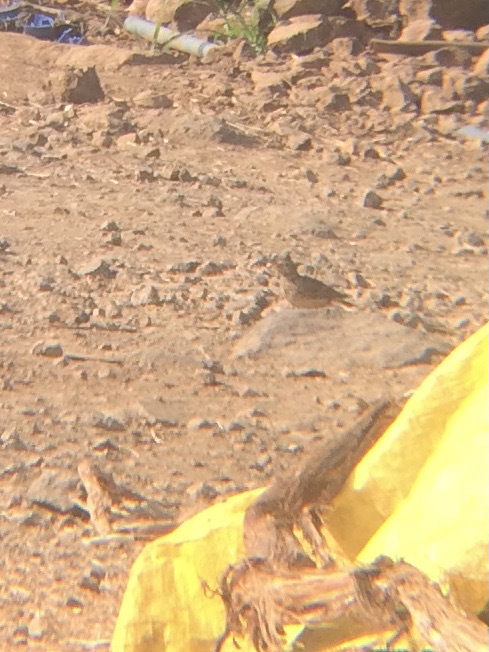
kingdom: Animalia
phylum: Chordata
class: Aves
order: Passeriformes
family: Alaudidae
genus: Galerida
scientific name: Galerida malabarica
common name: Malabar lark
